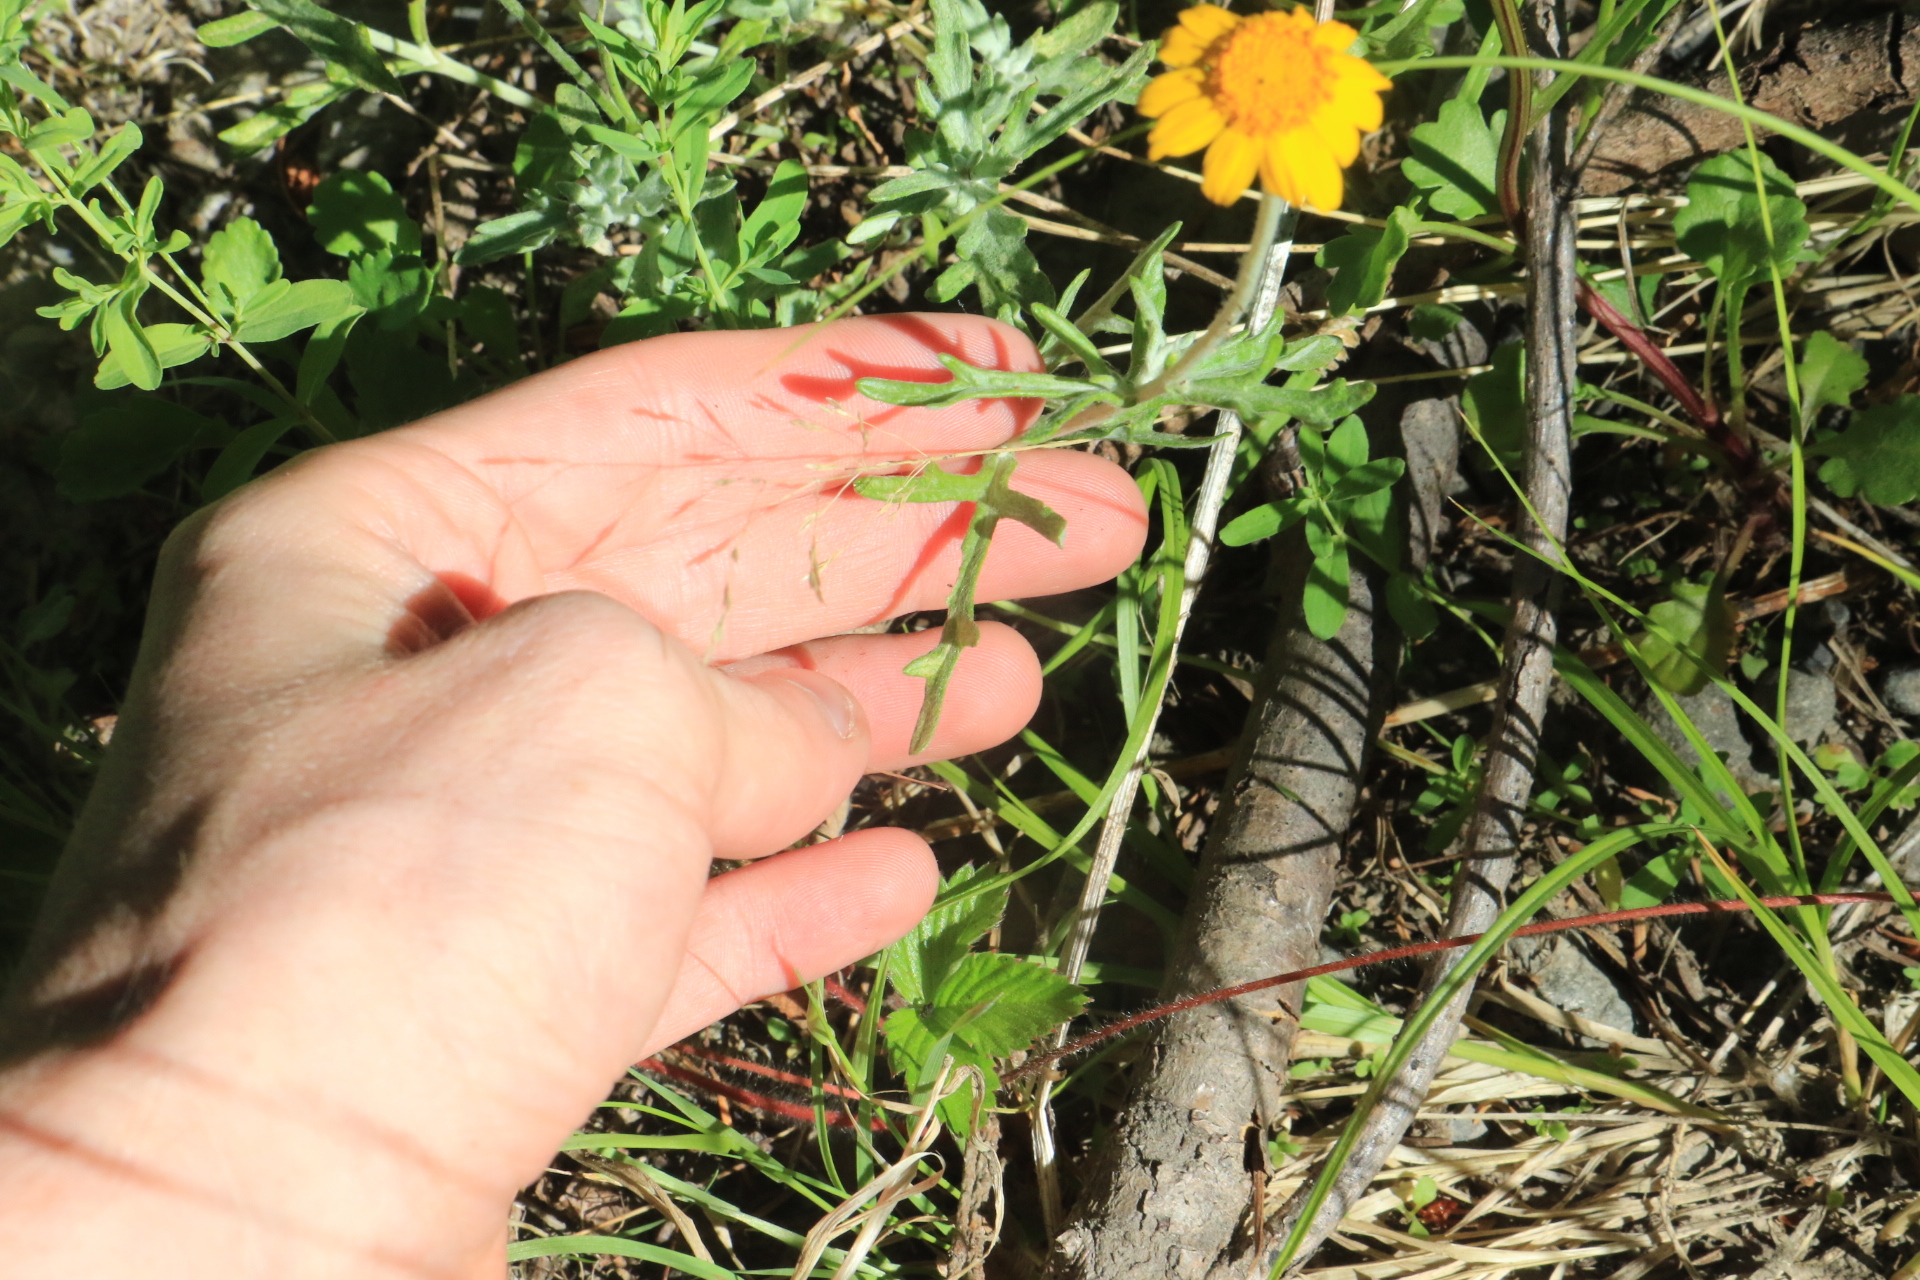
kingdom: Plantae
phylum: Tracheophyta
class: Magnoliopsida
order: Asterales
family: Asteraceae
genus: Eriophyllum
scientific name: Eriophyllum lanatum
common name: Common woolly-sunflower
